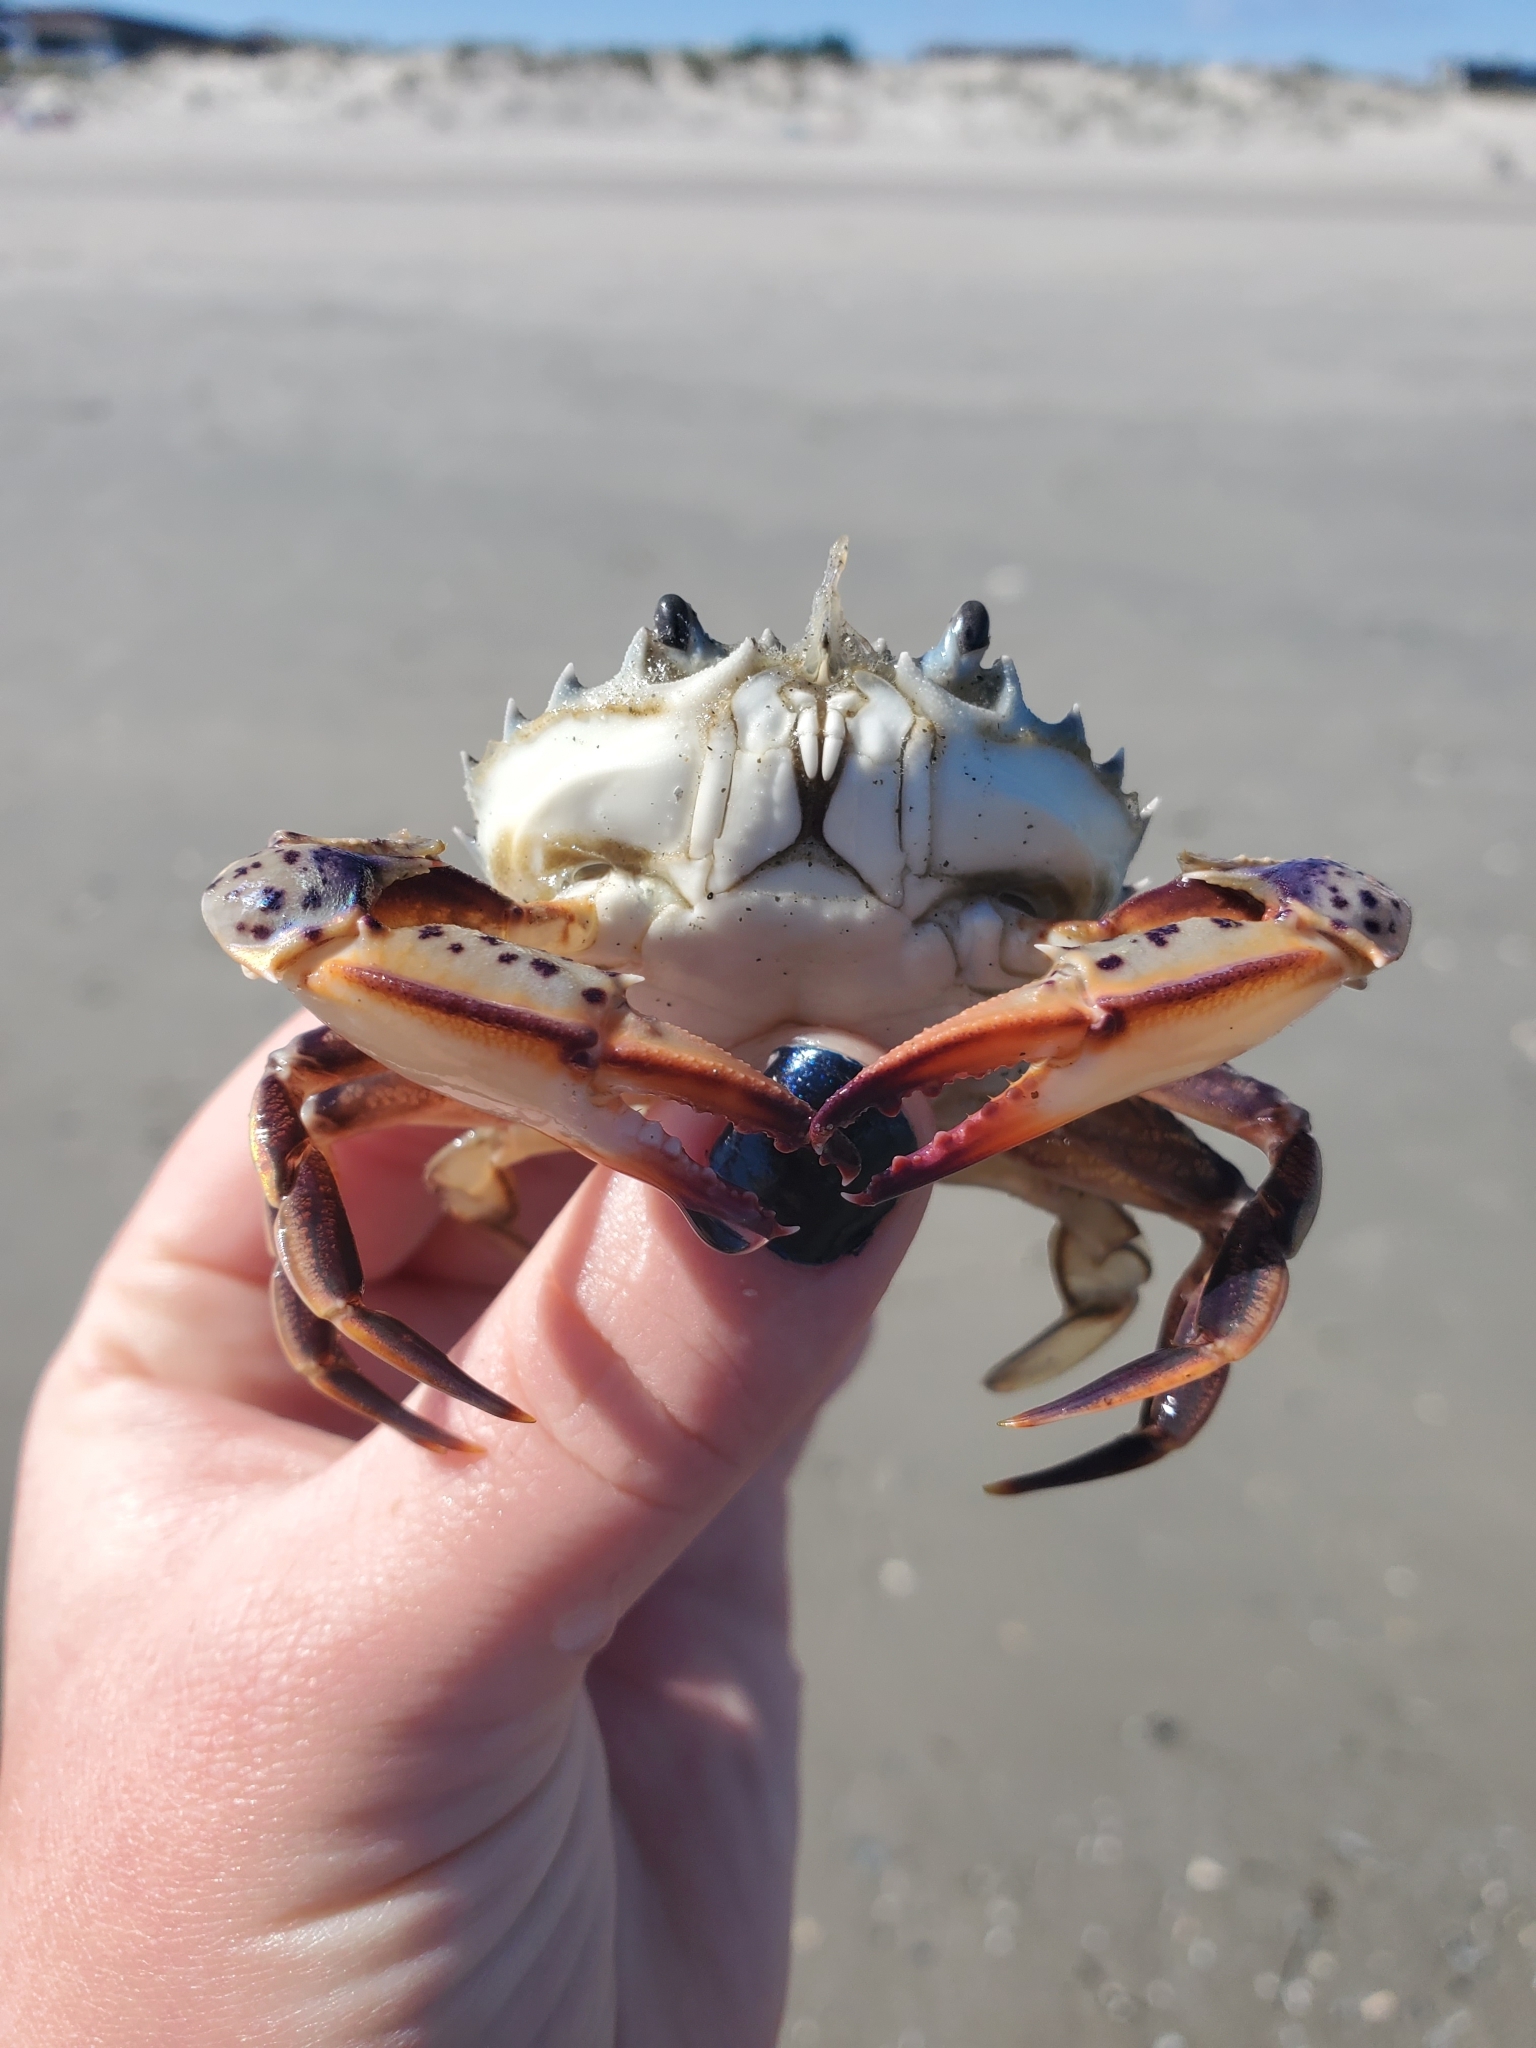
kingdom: Animalia
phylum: Arthropoda
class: Malacostraca
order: Decapoda
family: Ovalipidae
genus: Ovalipes
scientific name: Ovalipes ocellatus
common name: Lady crab
